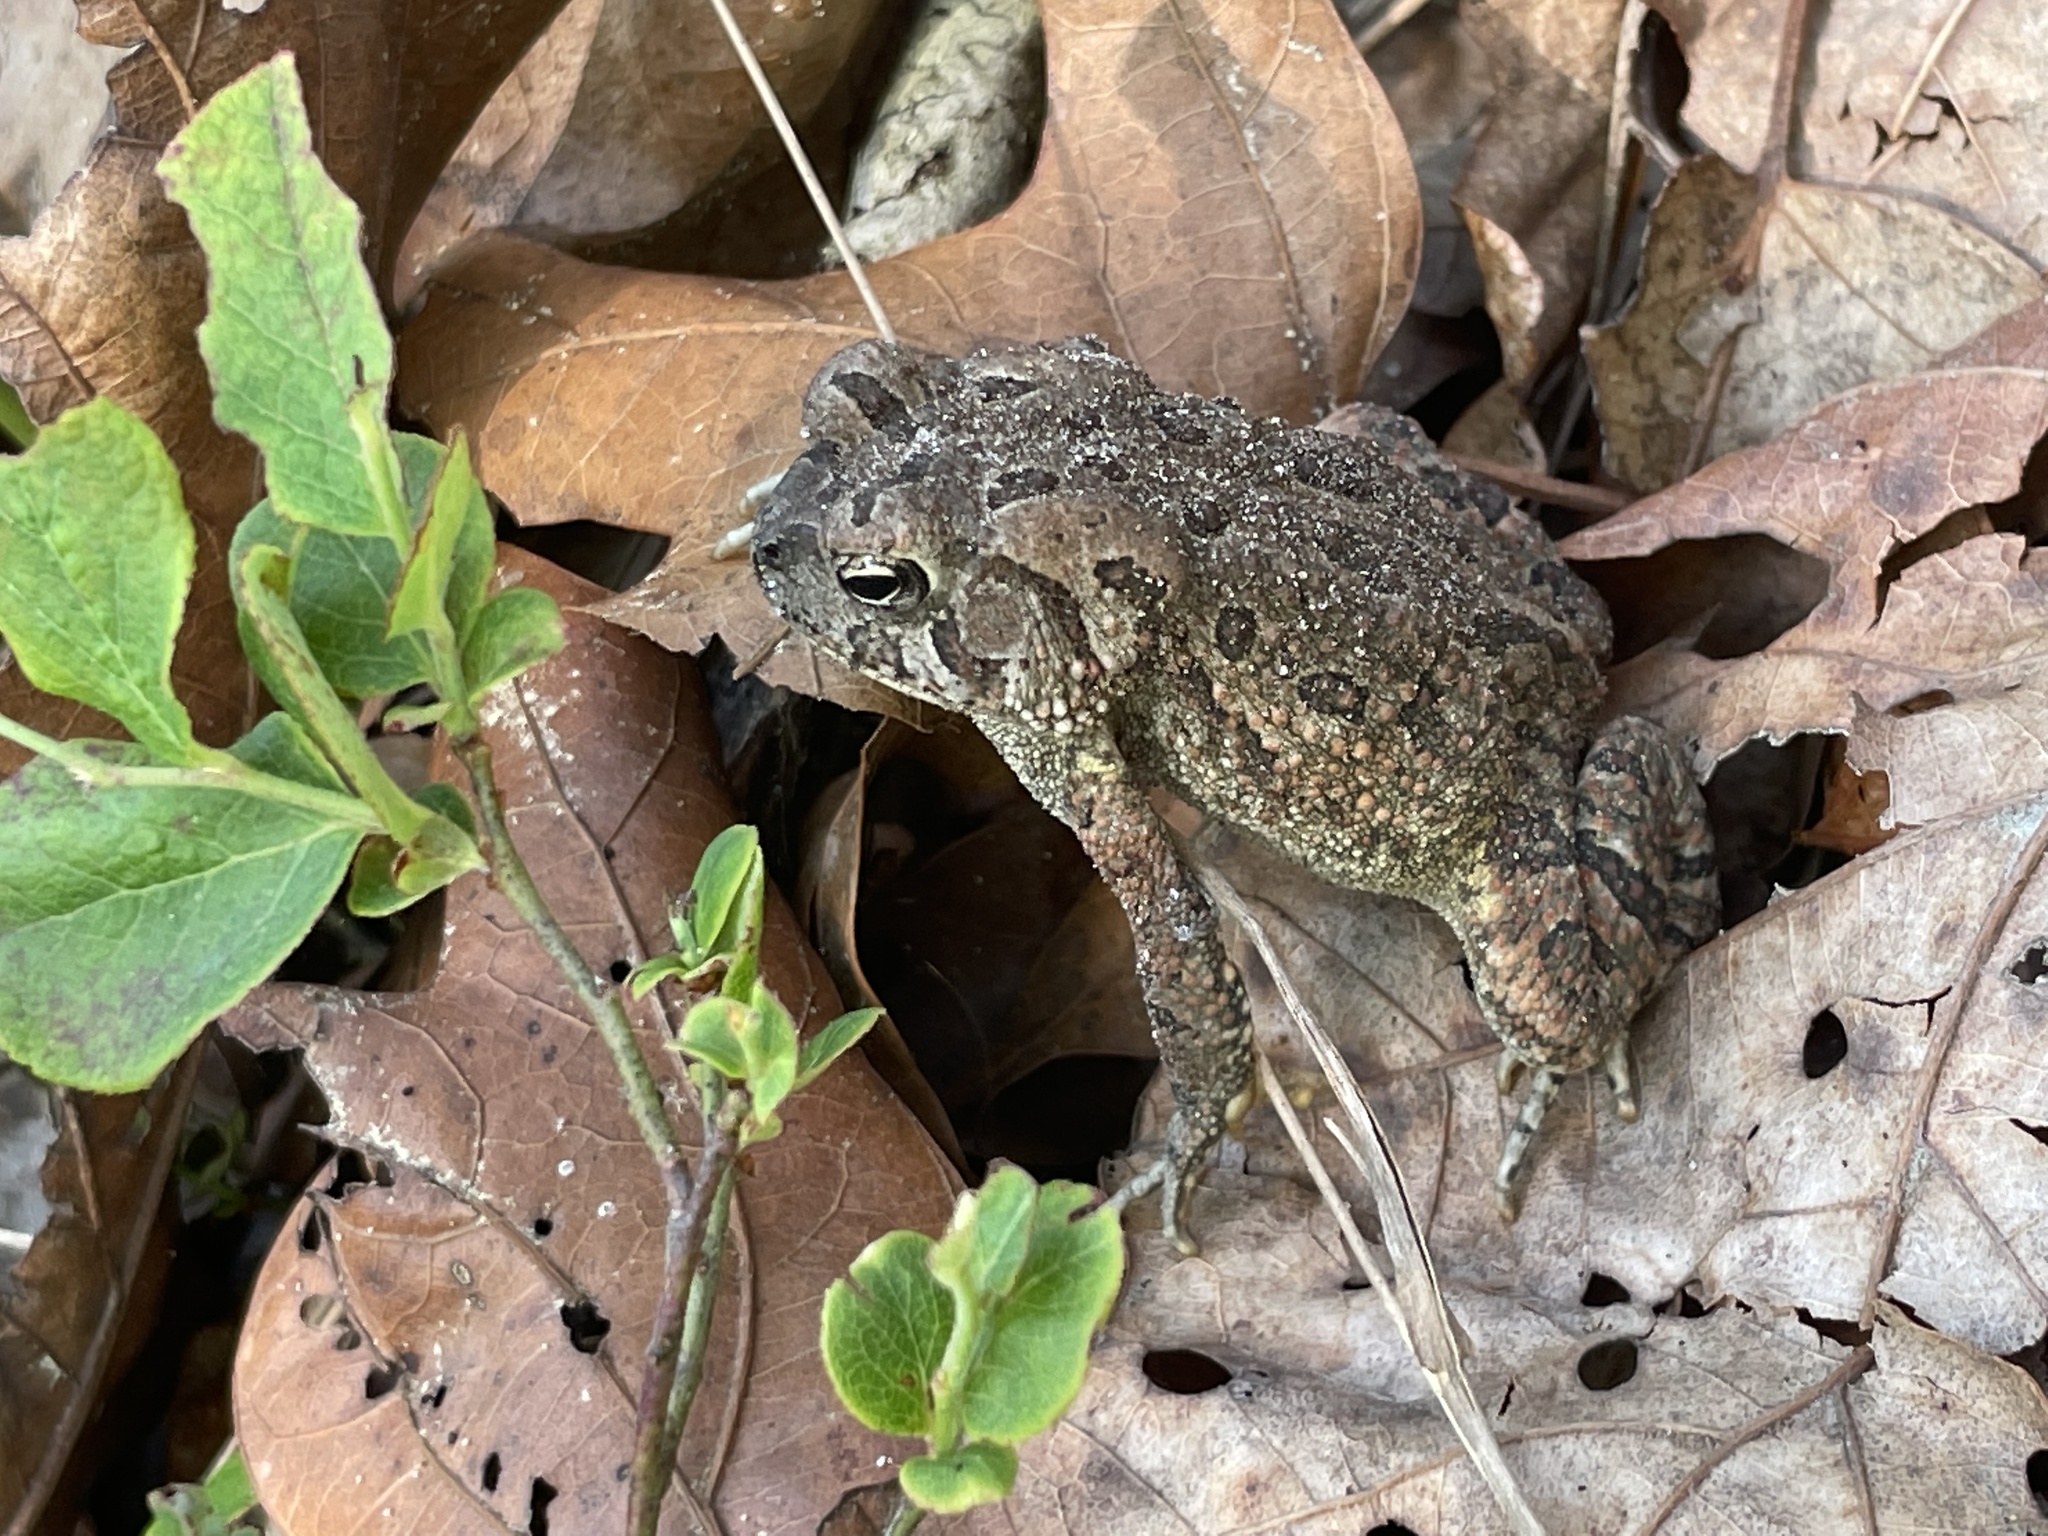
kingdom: Animalia
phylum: Chordata
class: Amphibia
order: Anura
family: Bufonidae
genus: Anaxyrus
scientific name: Anaxyrus fowleri
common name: Fowler's toad
